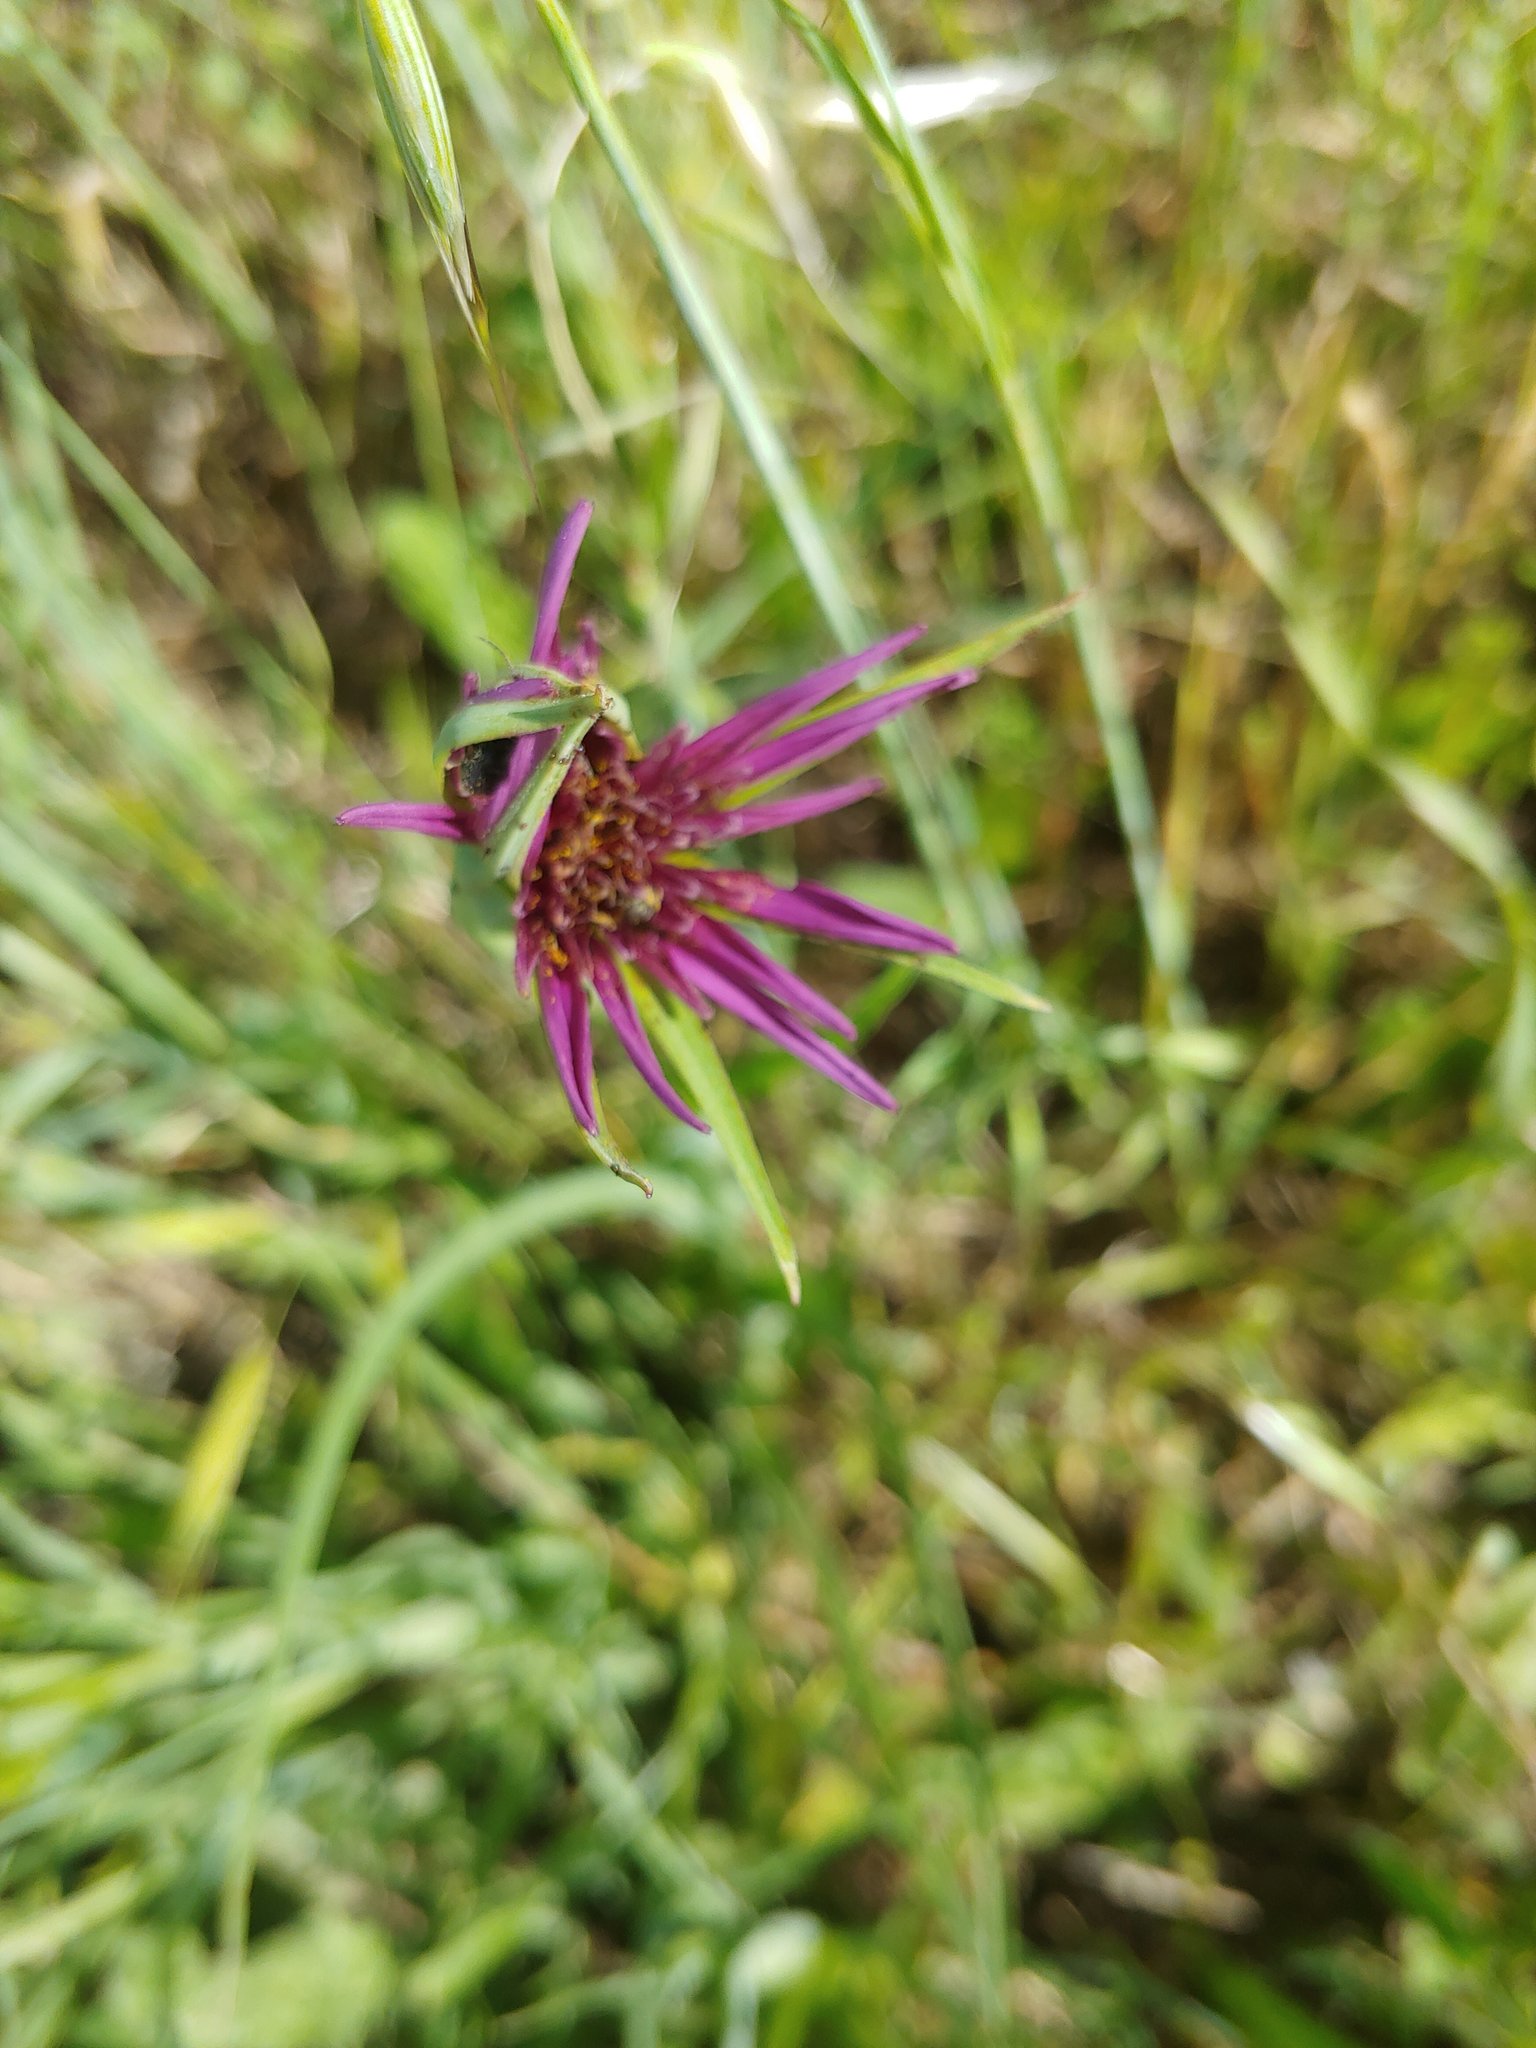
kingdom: Plantae
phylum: Tracheophyta
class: Magnoliopsida
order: Asterales
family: Asteraceae
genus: Tragopogon
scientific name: Tragopogon porrifolius
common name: Salsify
